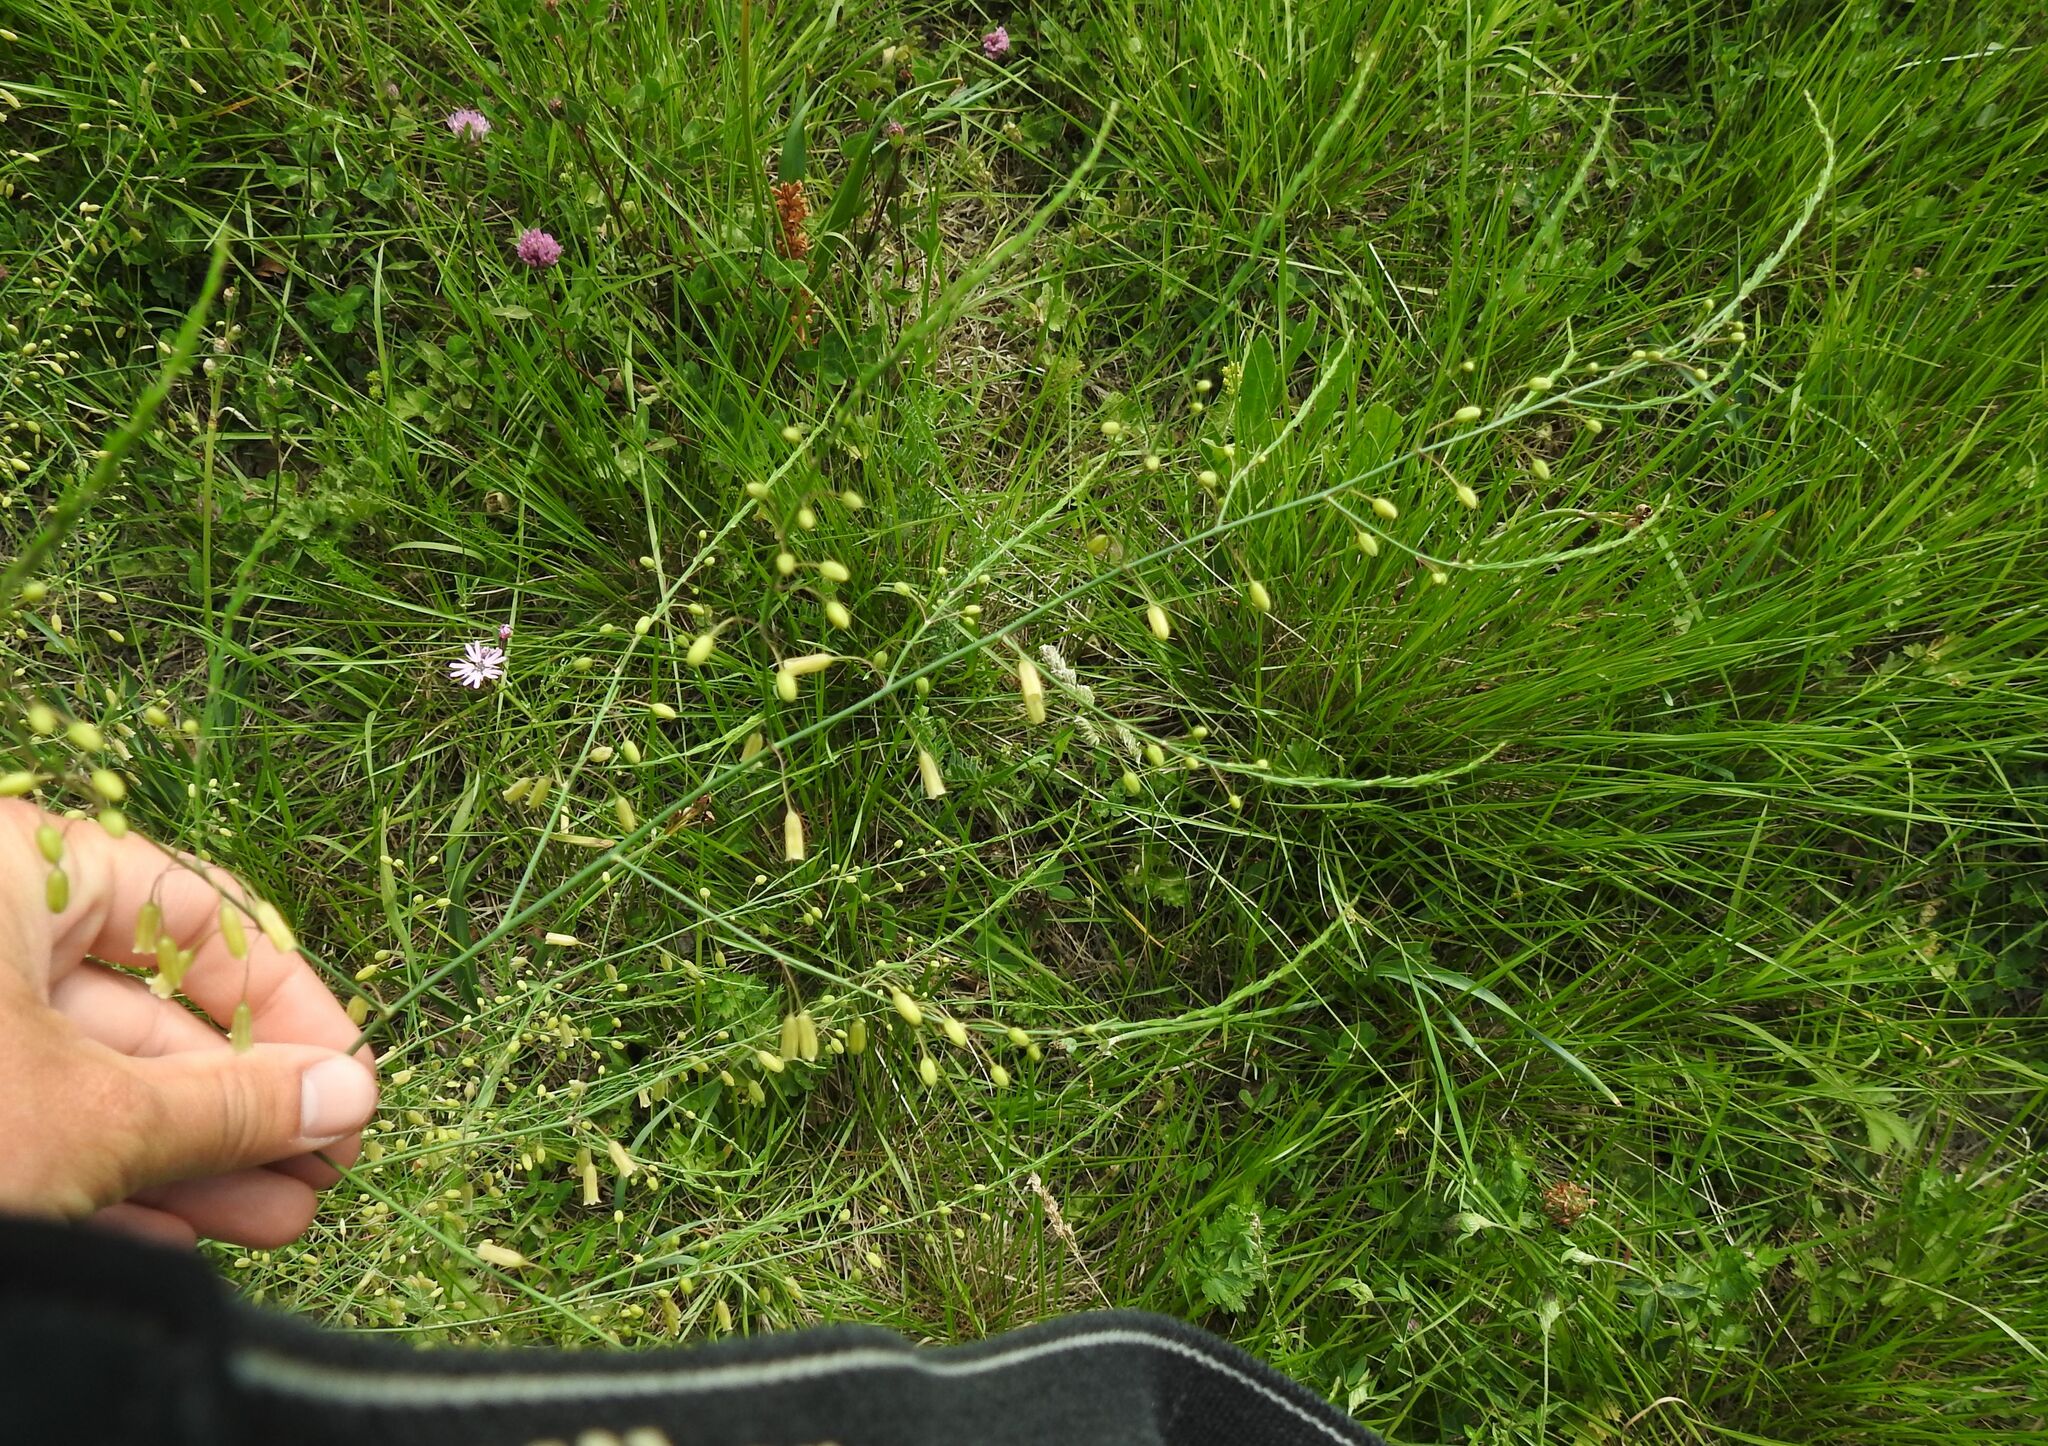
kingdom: Plantae
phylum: Tracheophyta
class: Liliopsida
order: Asparagales
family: Asparagaceae
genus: Asparagus
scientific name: Asparagus officinalis
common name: Garden asparagus
